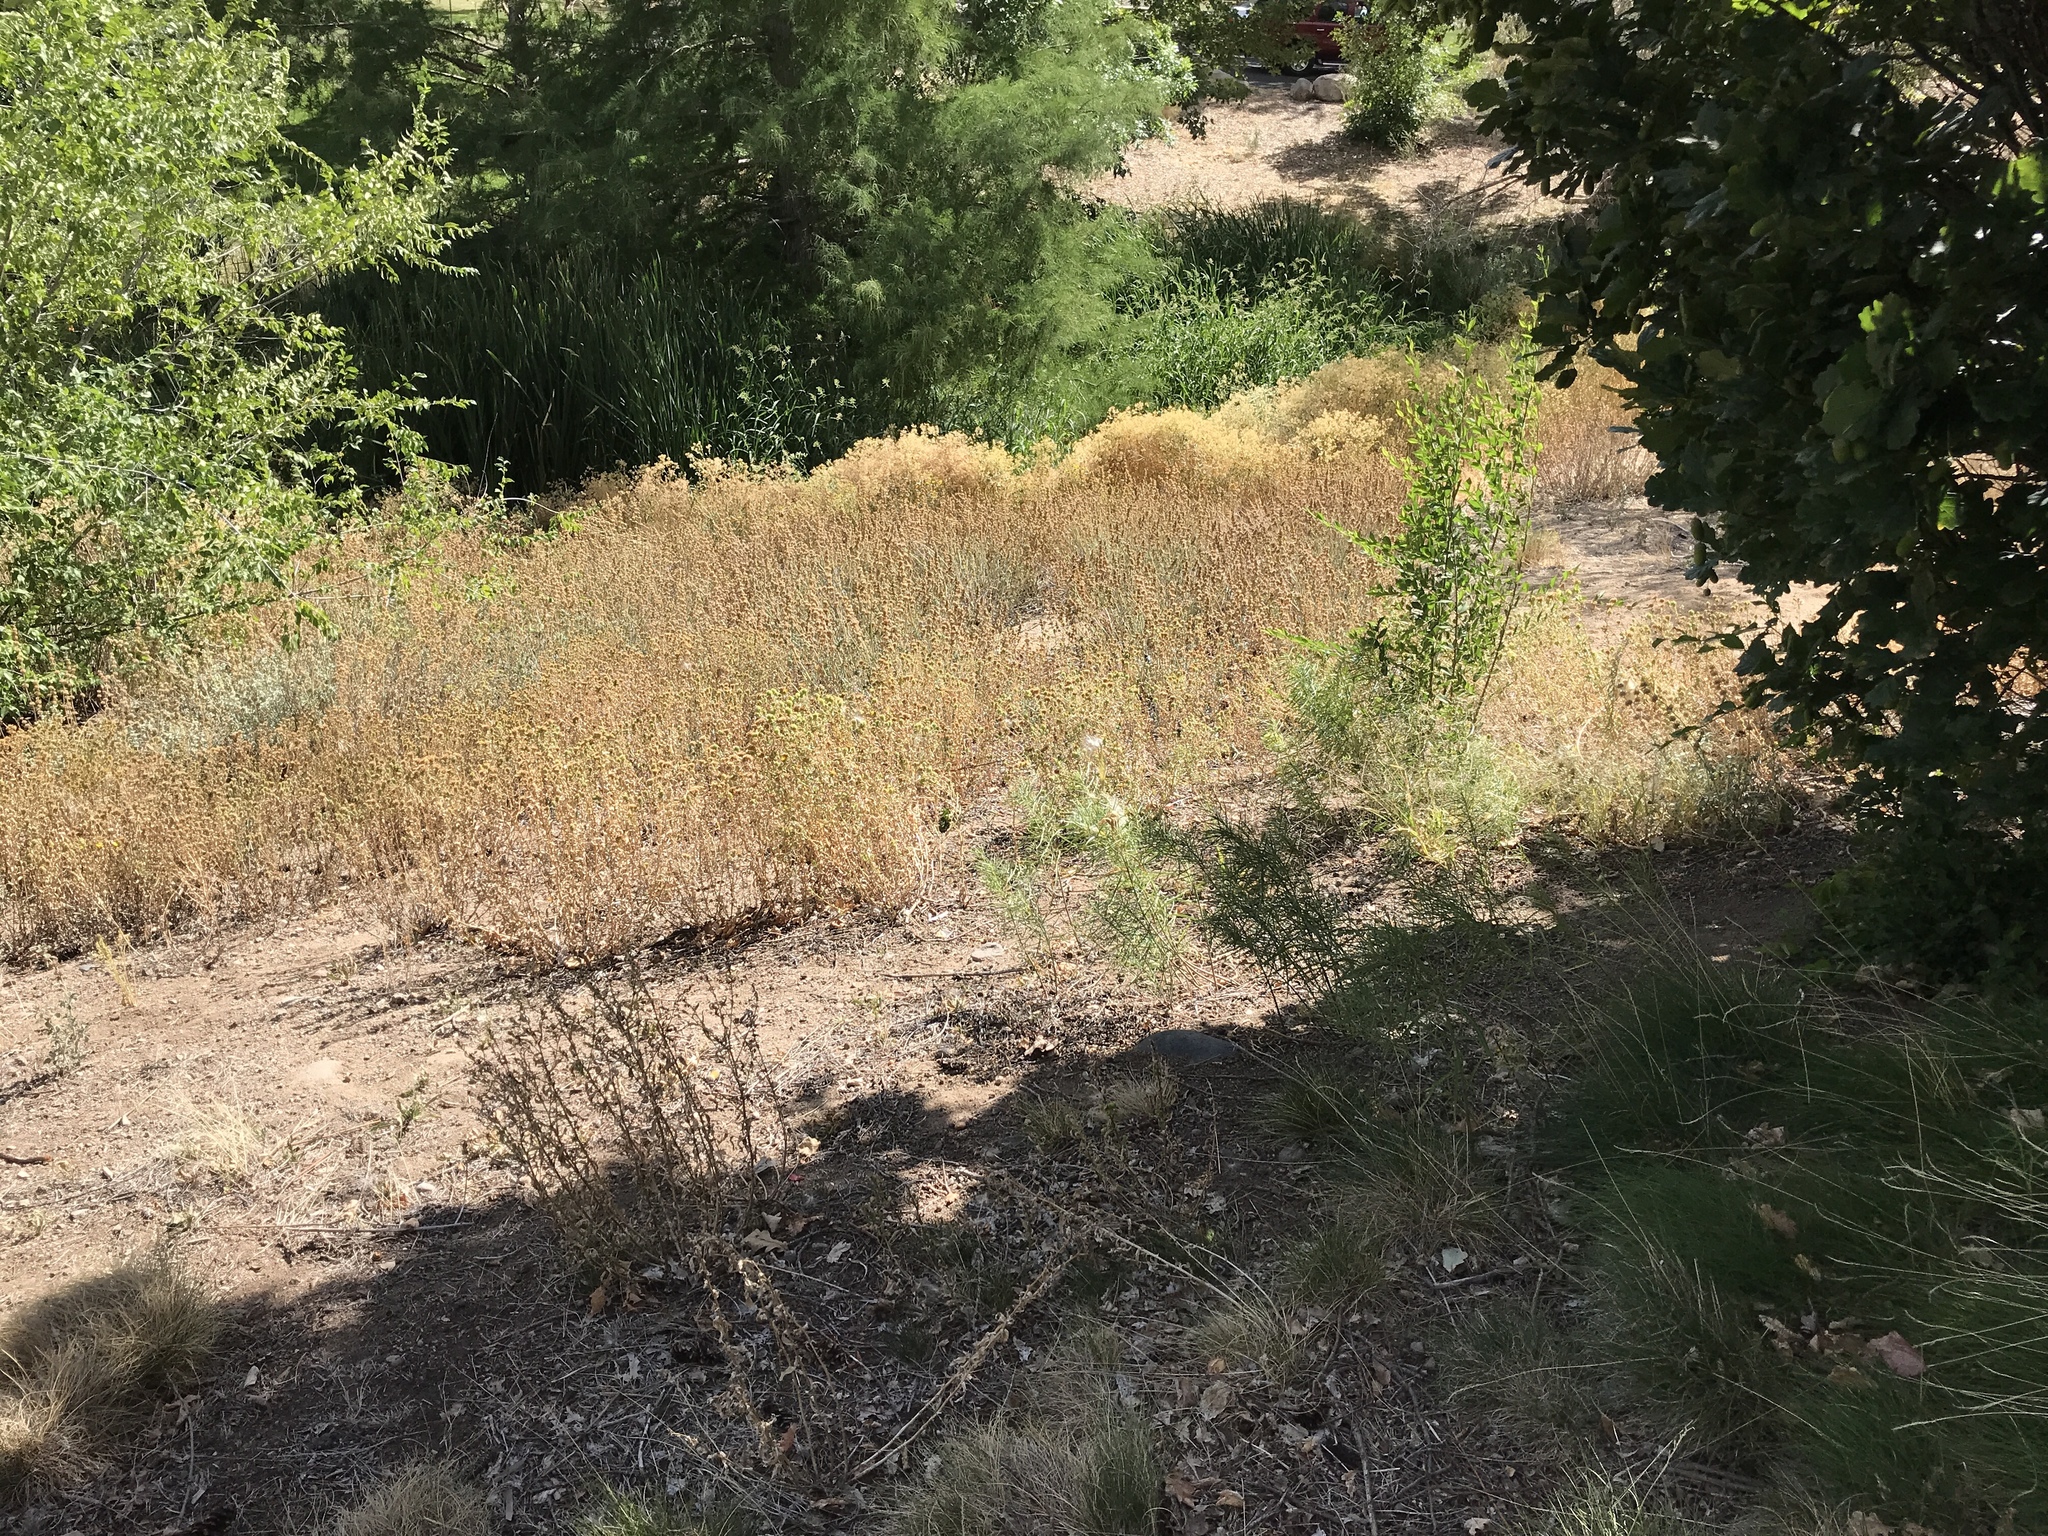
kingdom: Plantae
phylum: Tracheophyta
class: Magnoliopsida
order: Gentianales
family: Apocynaceae
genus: Asclepias
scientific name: Asclepias fascicularis
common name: Mexican milkweed
